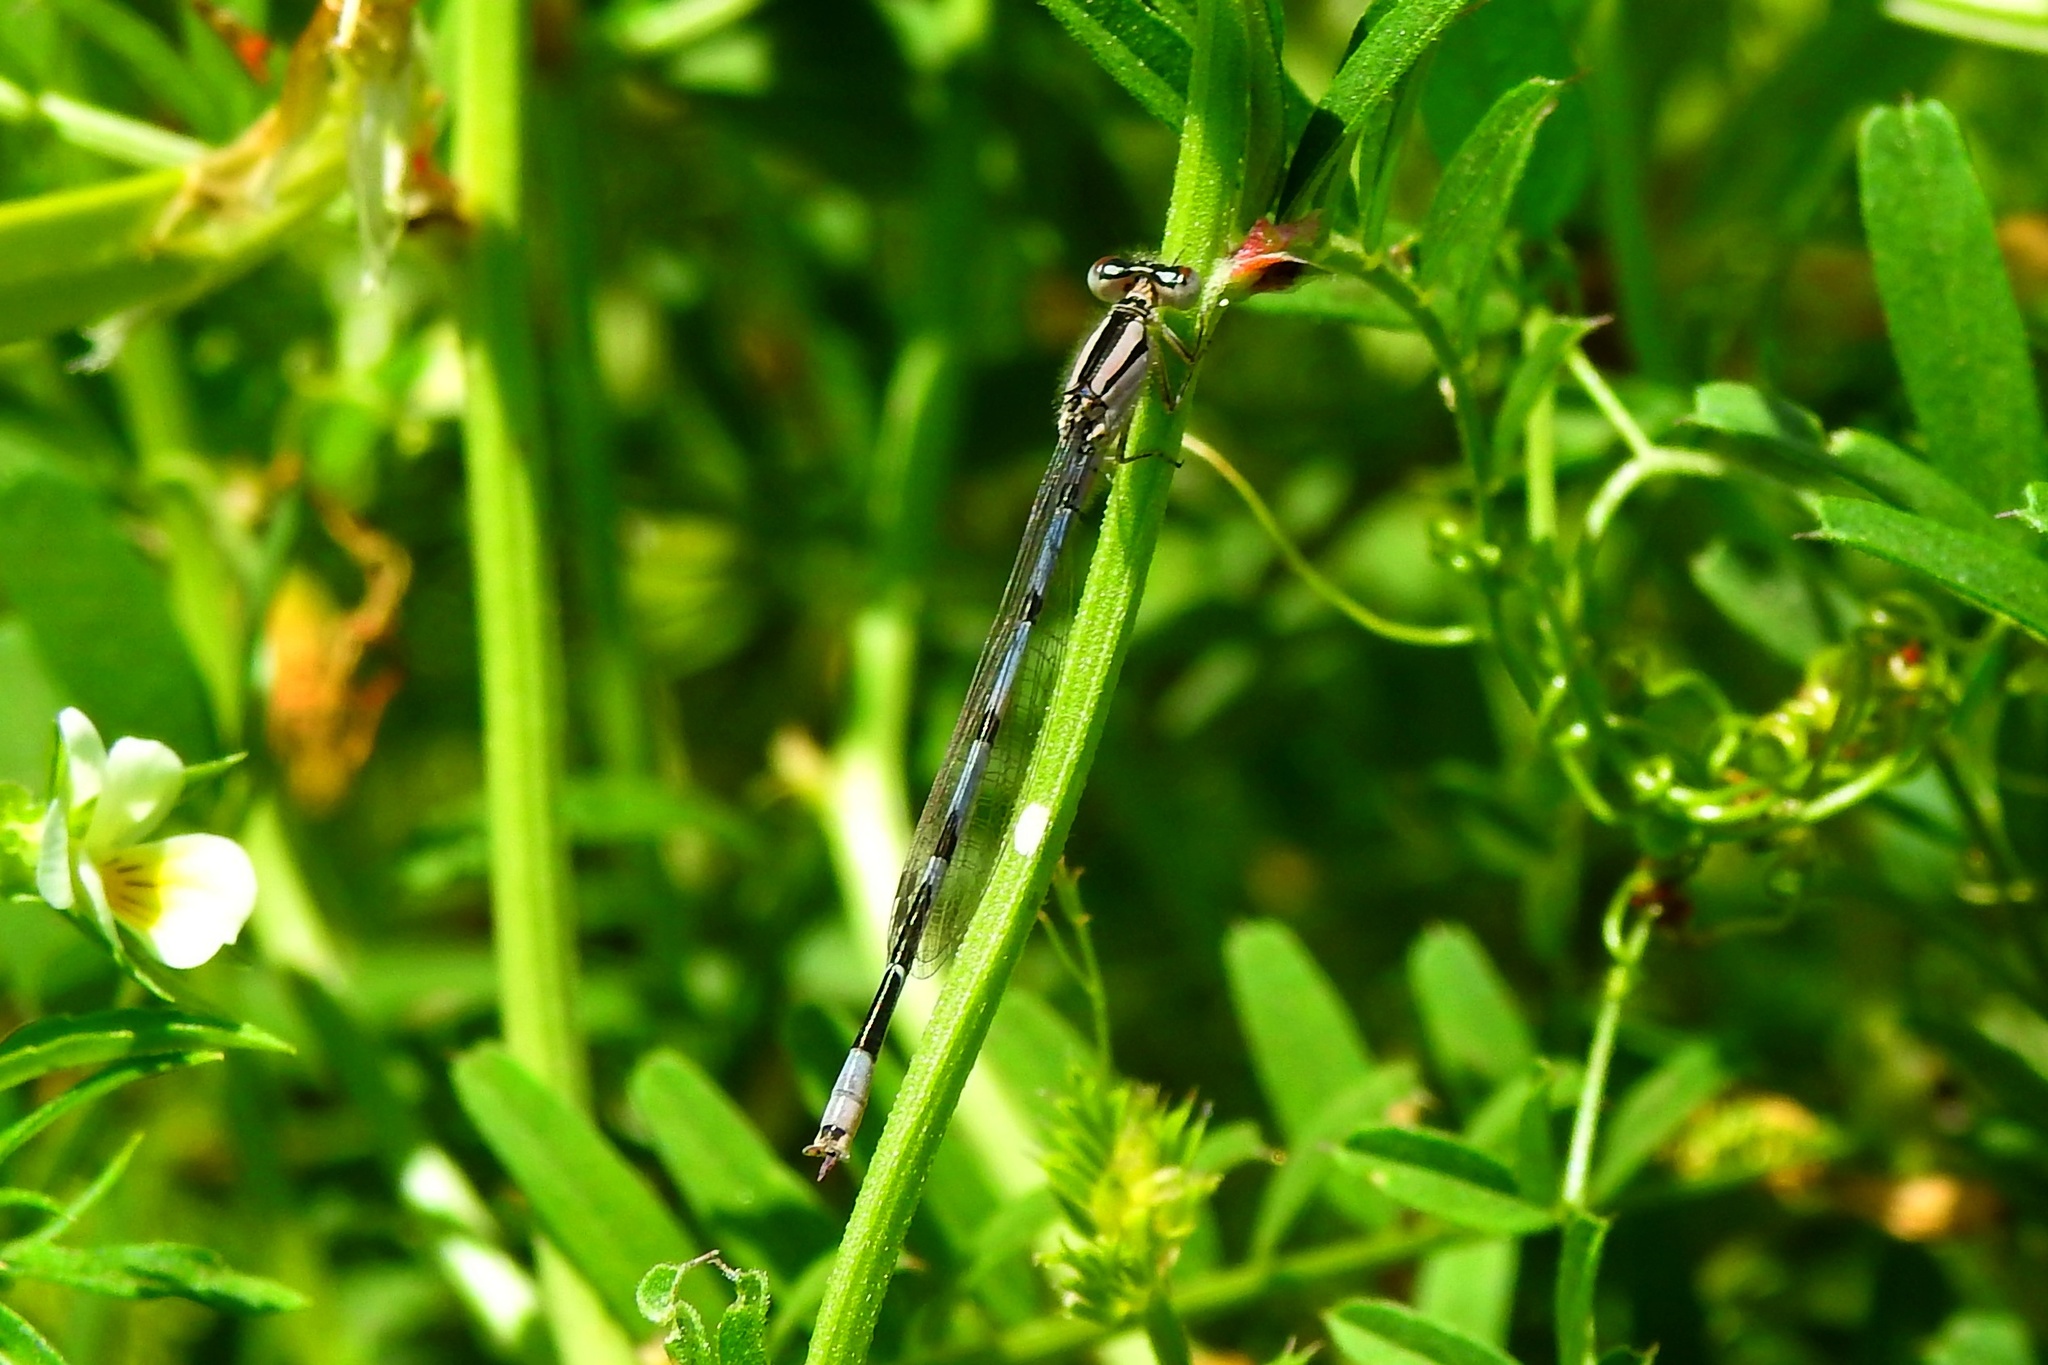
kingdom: Animalia
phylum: Arthropoda
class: Insecta
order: Odonata
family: Coenagrionidae
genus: Enallagma
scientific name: Enallagma civile
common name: Damselfly
